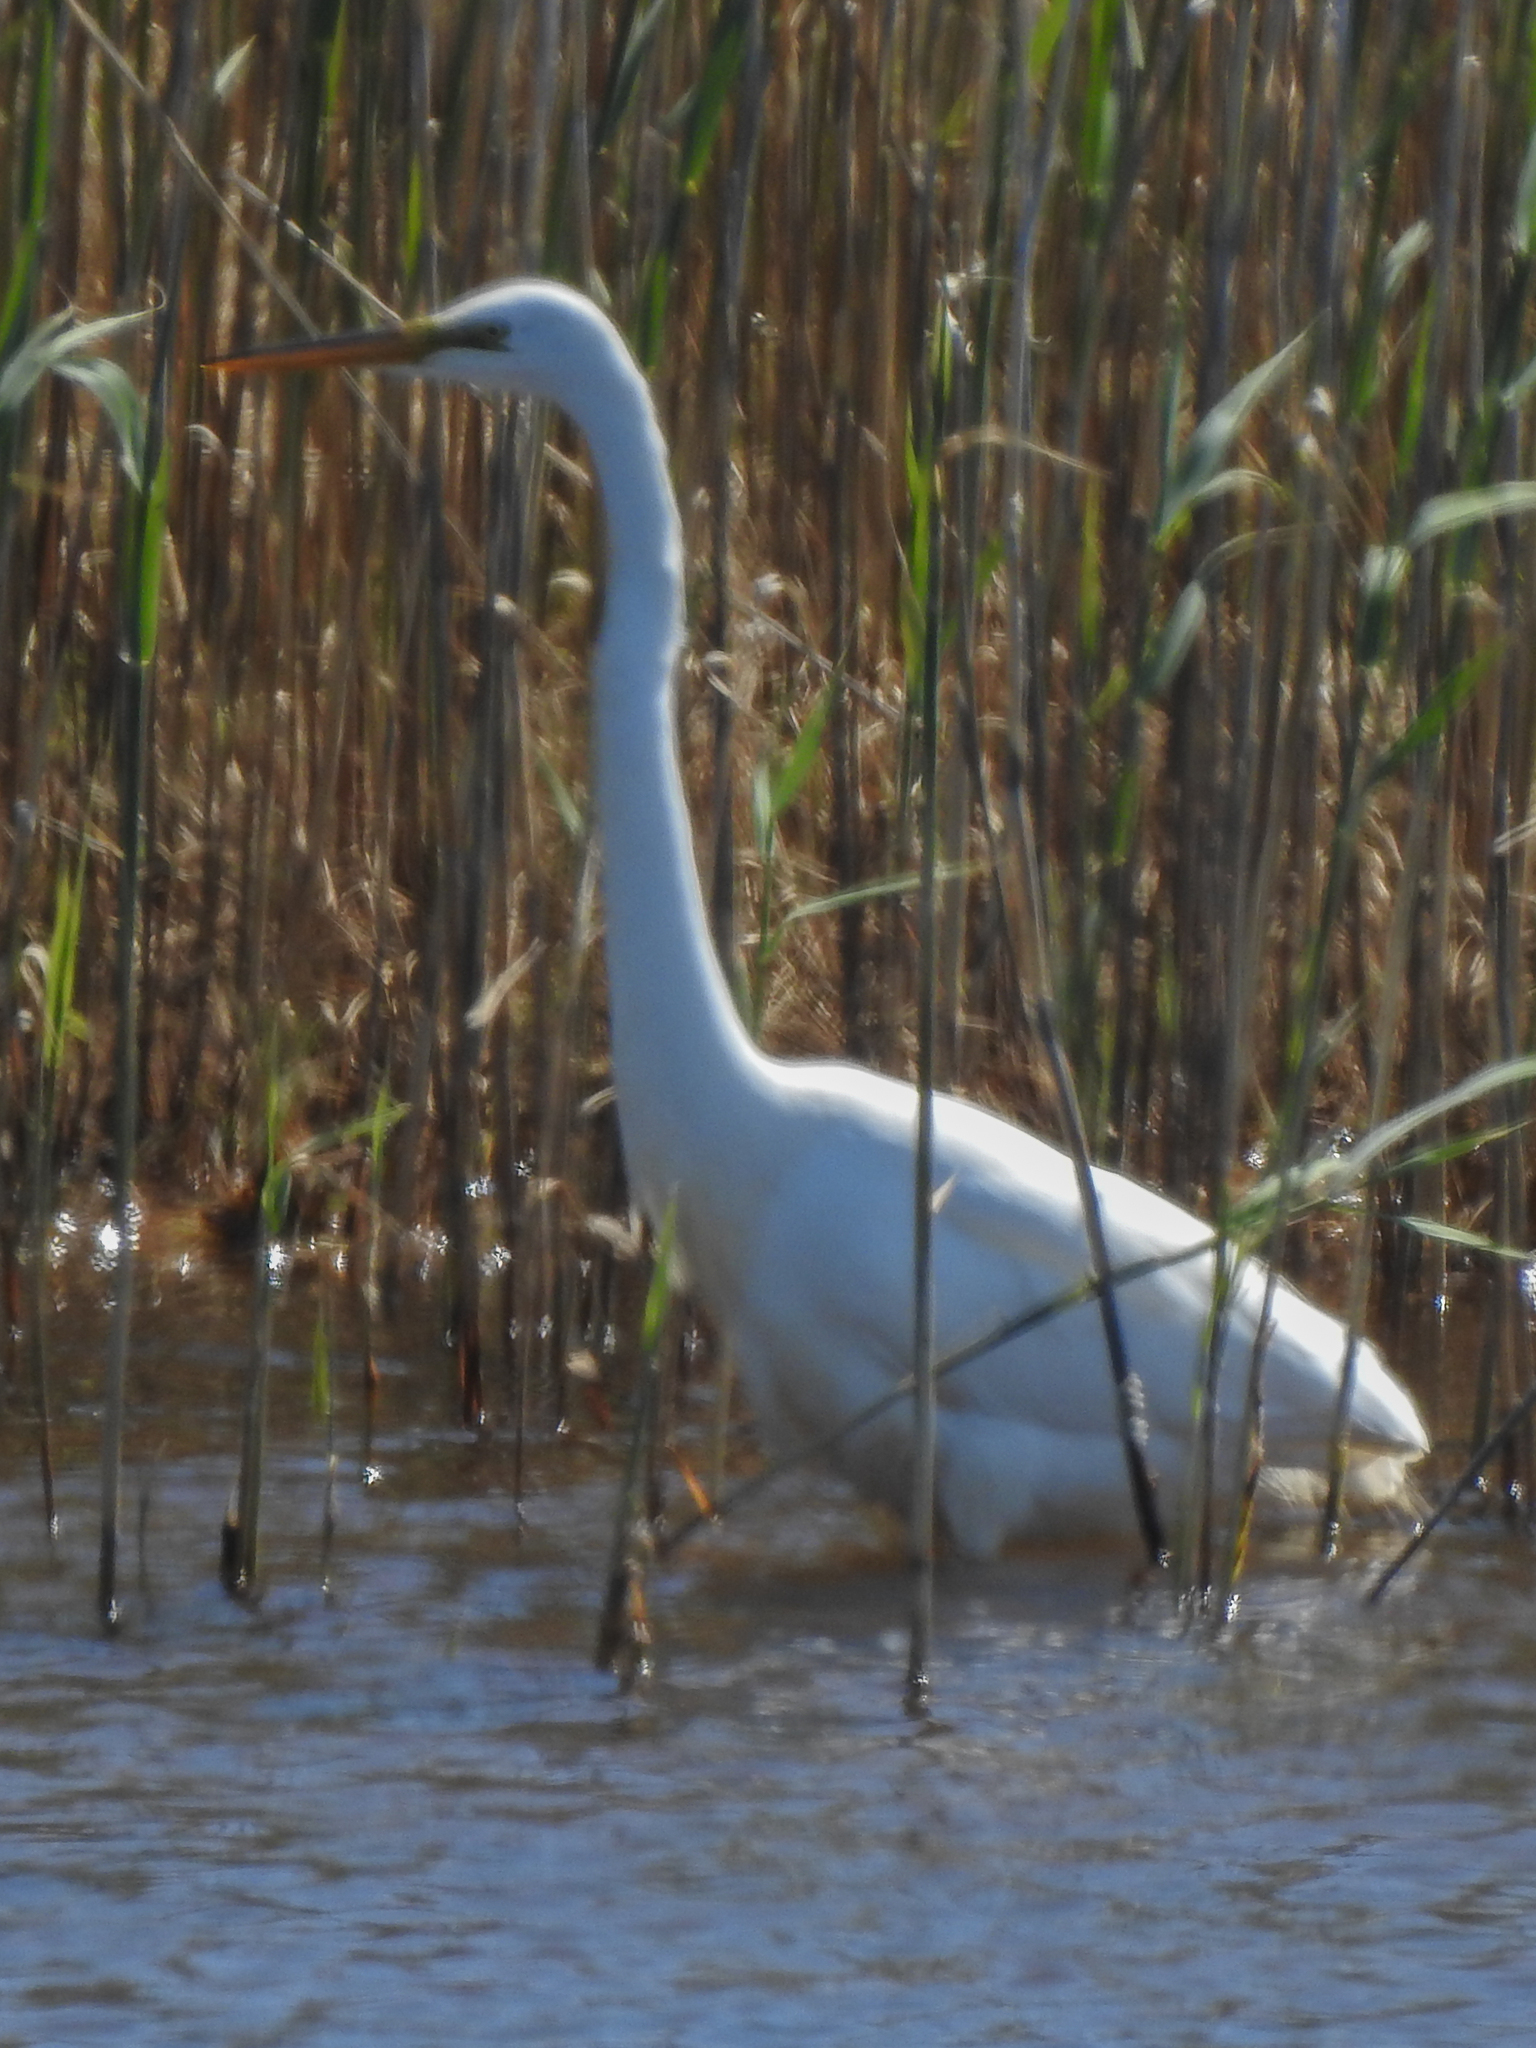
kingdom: Animalia
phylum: Chordata
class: Aves
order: Pelecaniformes
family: Ardeidae
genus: Ardea
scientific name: Ardea alba
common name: Great egret
